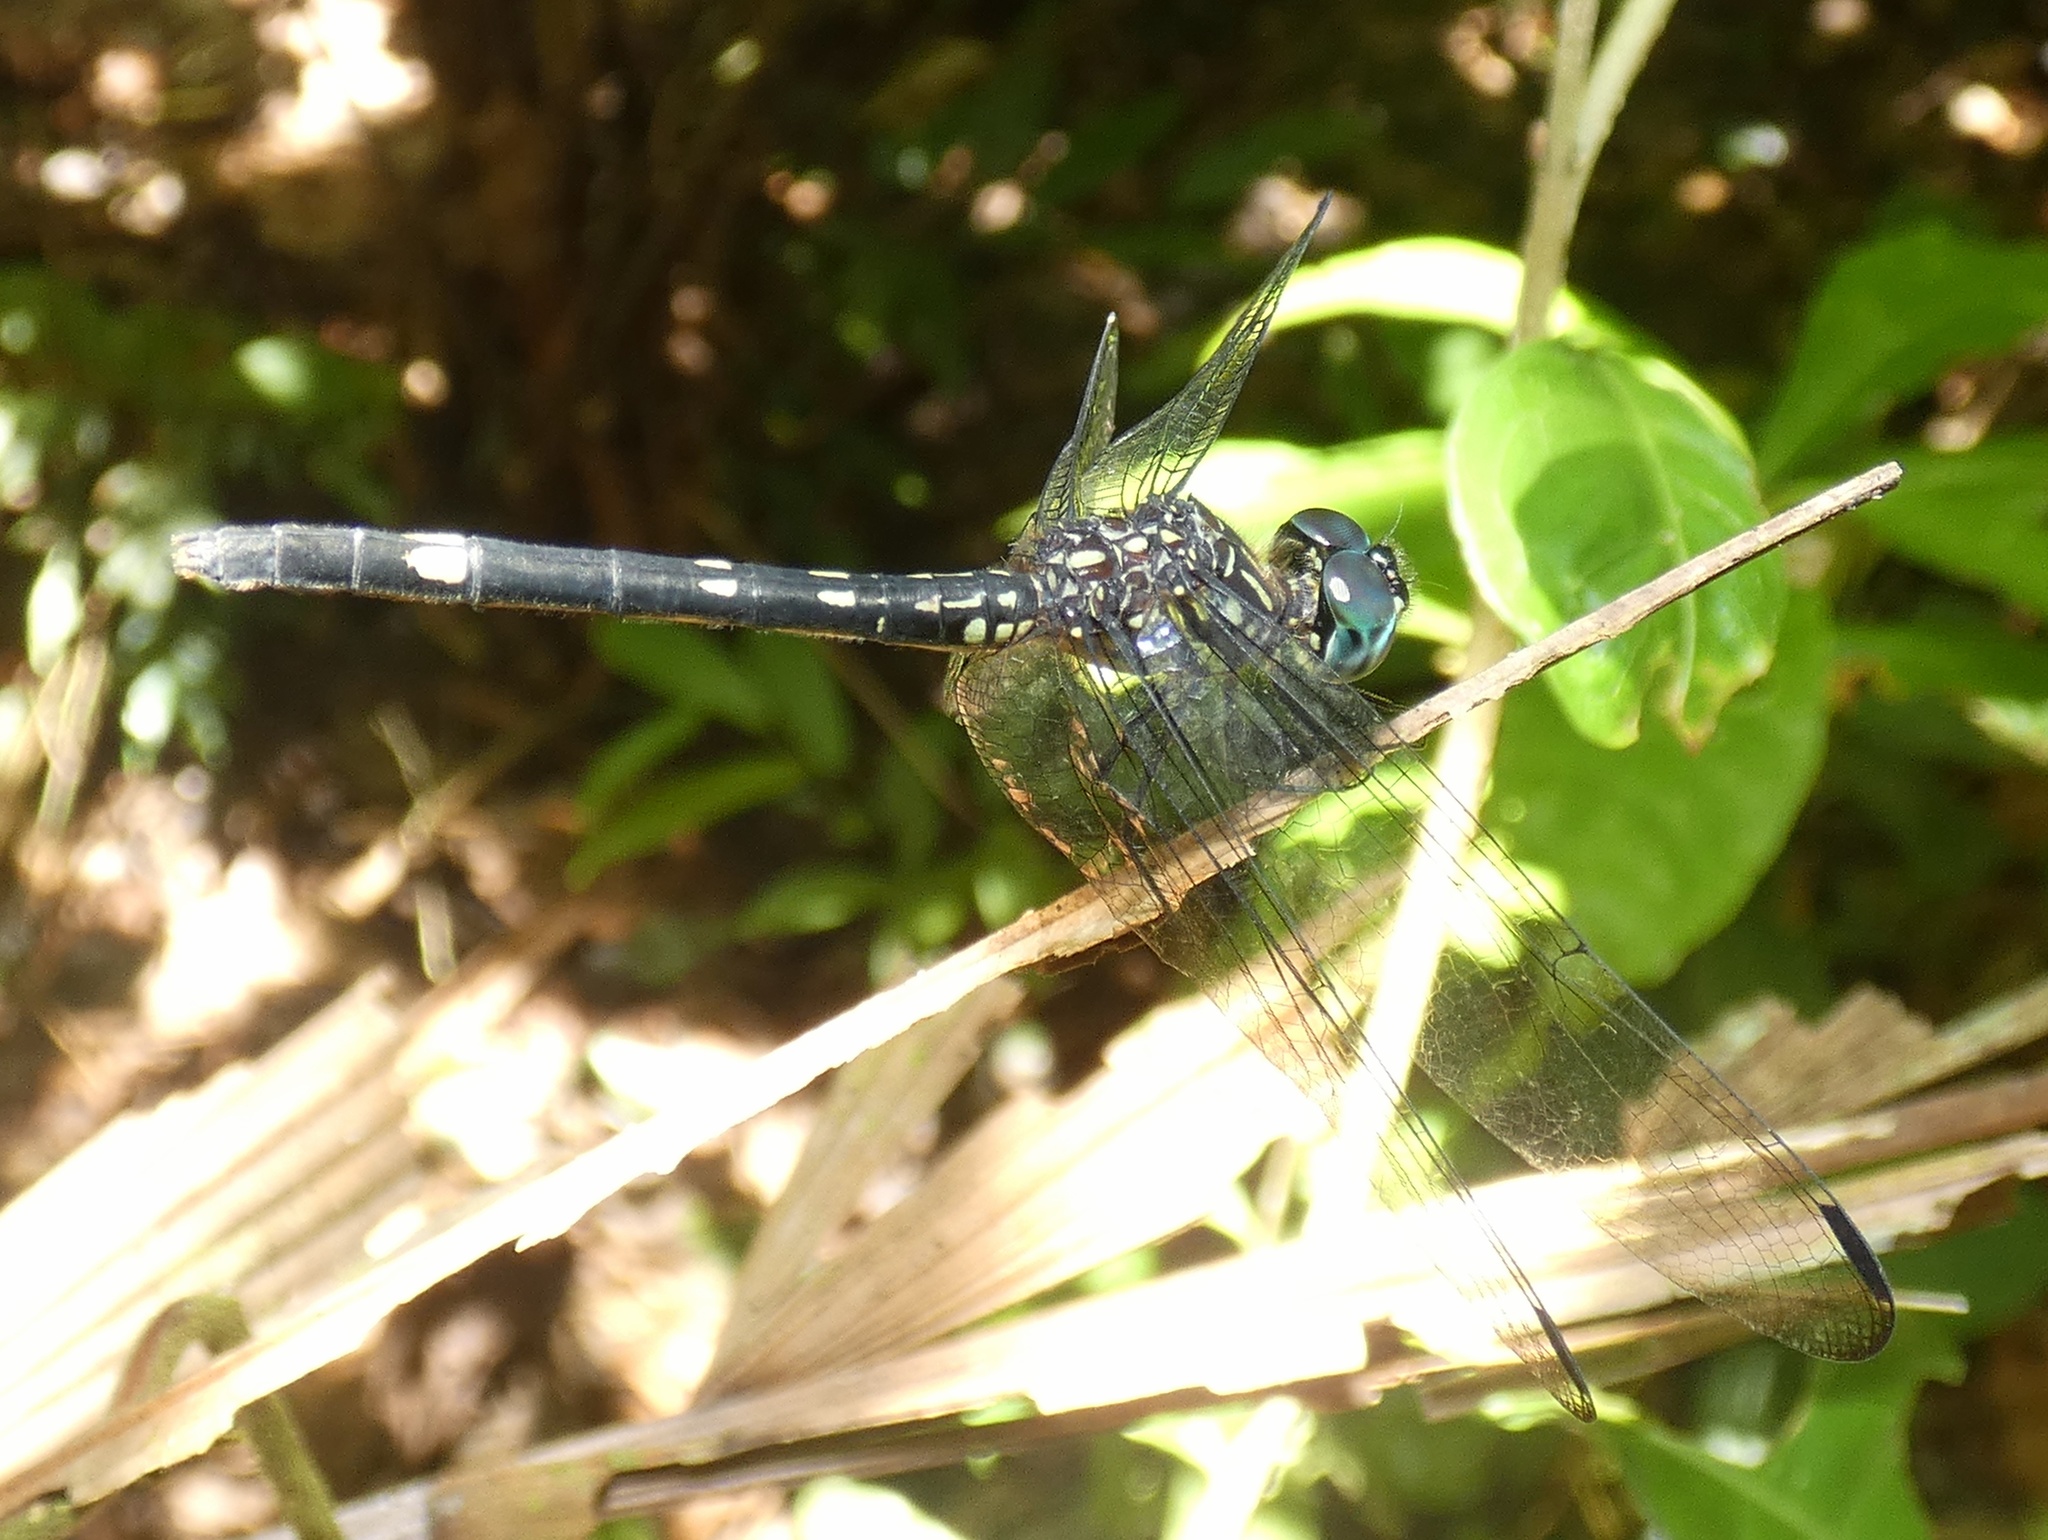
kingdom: Animalia
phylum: Arthropoda
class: Insecta
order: Odonata
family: Libellulidae
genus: Dythemis
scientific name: Dythemis nigra
